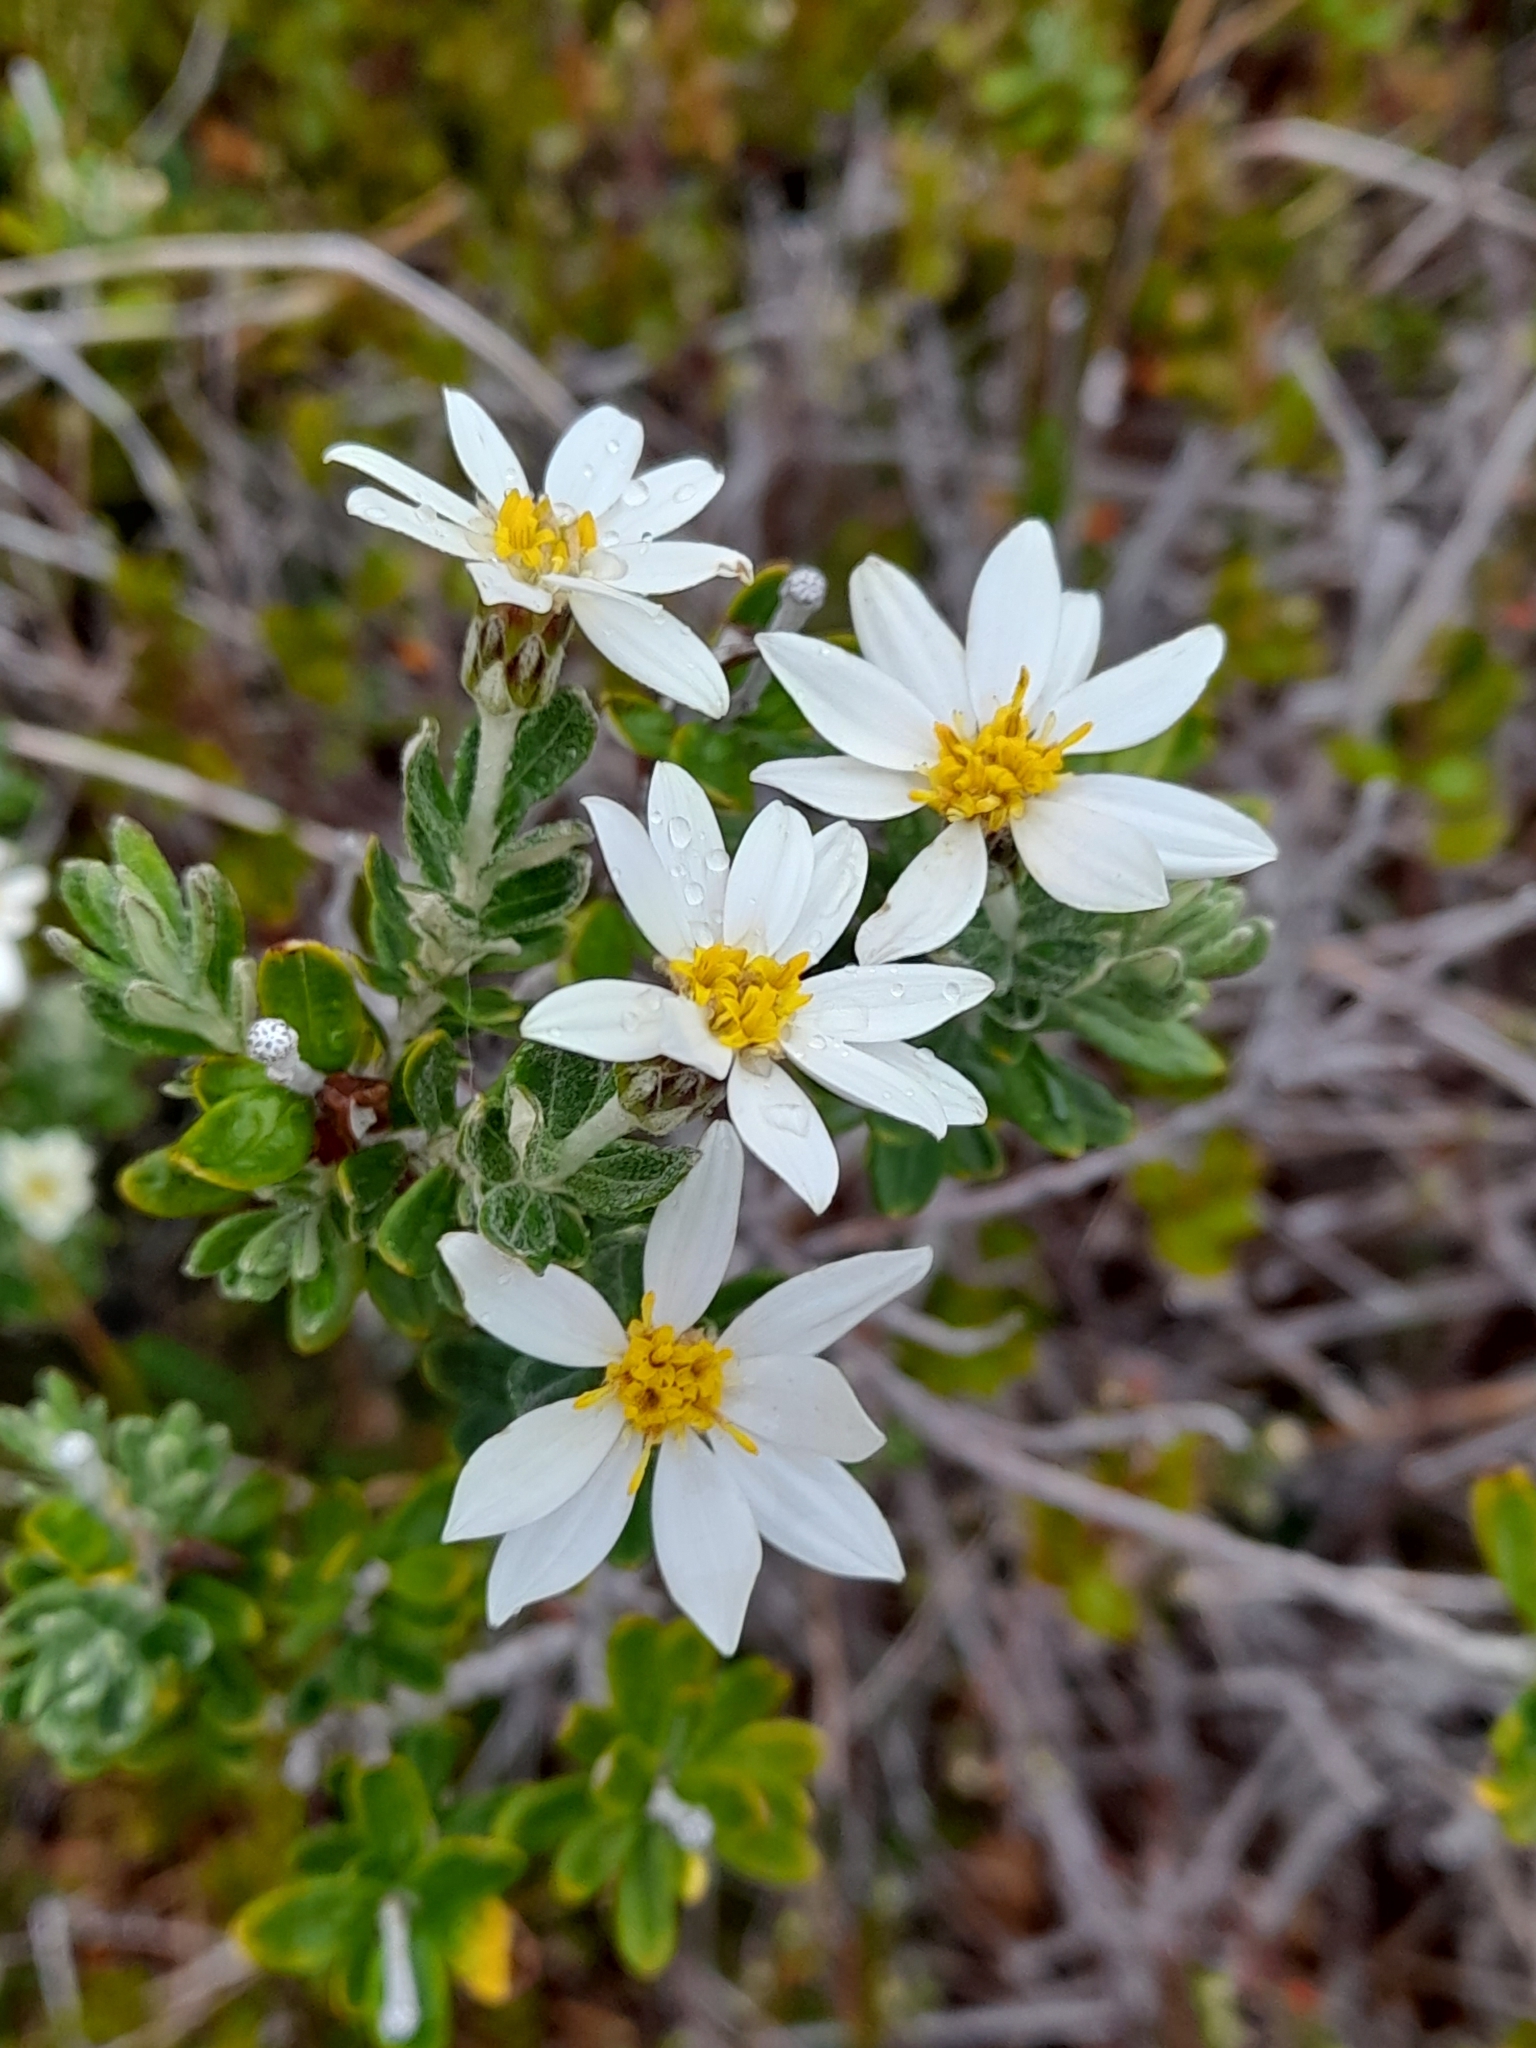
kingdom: Plantae
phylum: Tracheophyta
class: Magnoliopsida
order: Asterales
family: Asteraceae
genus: Chiliotrichum
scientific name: Chiliotrichum diffusum
